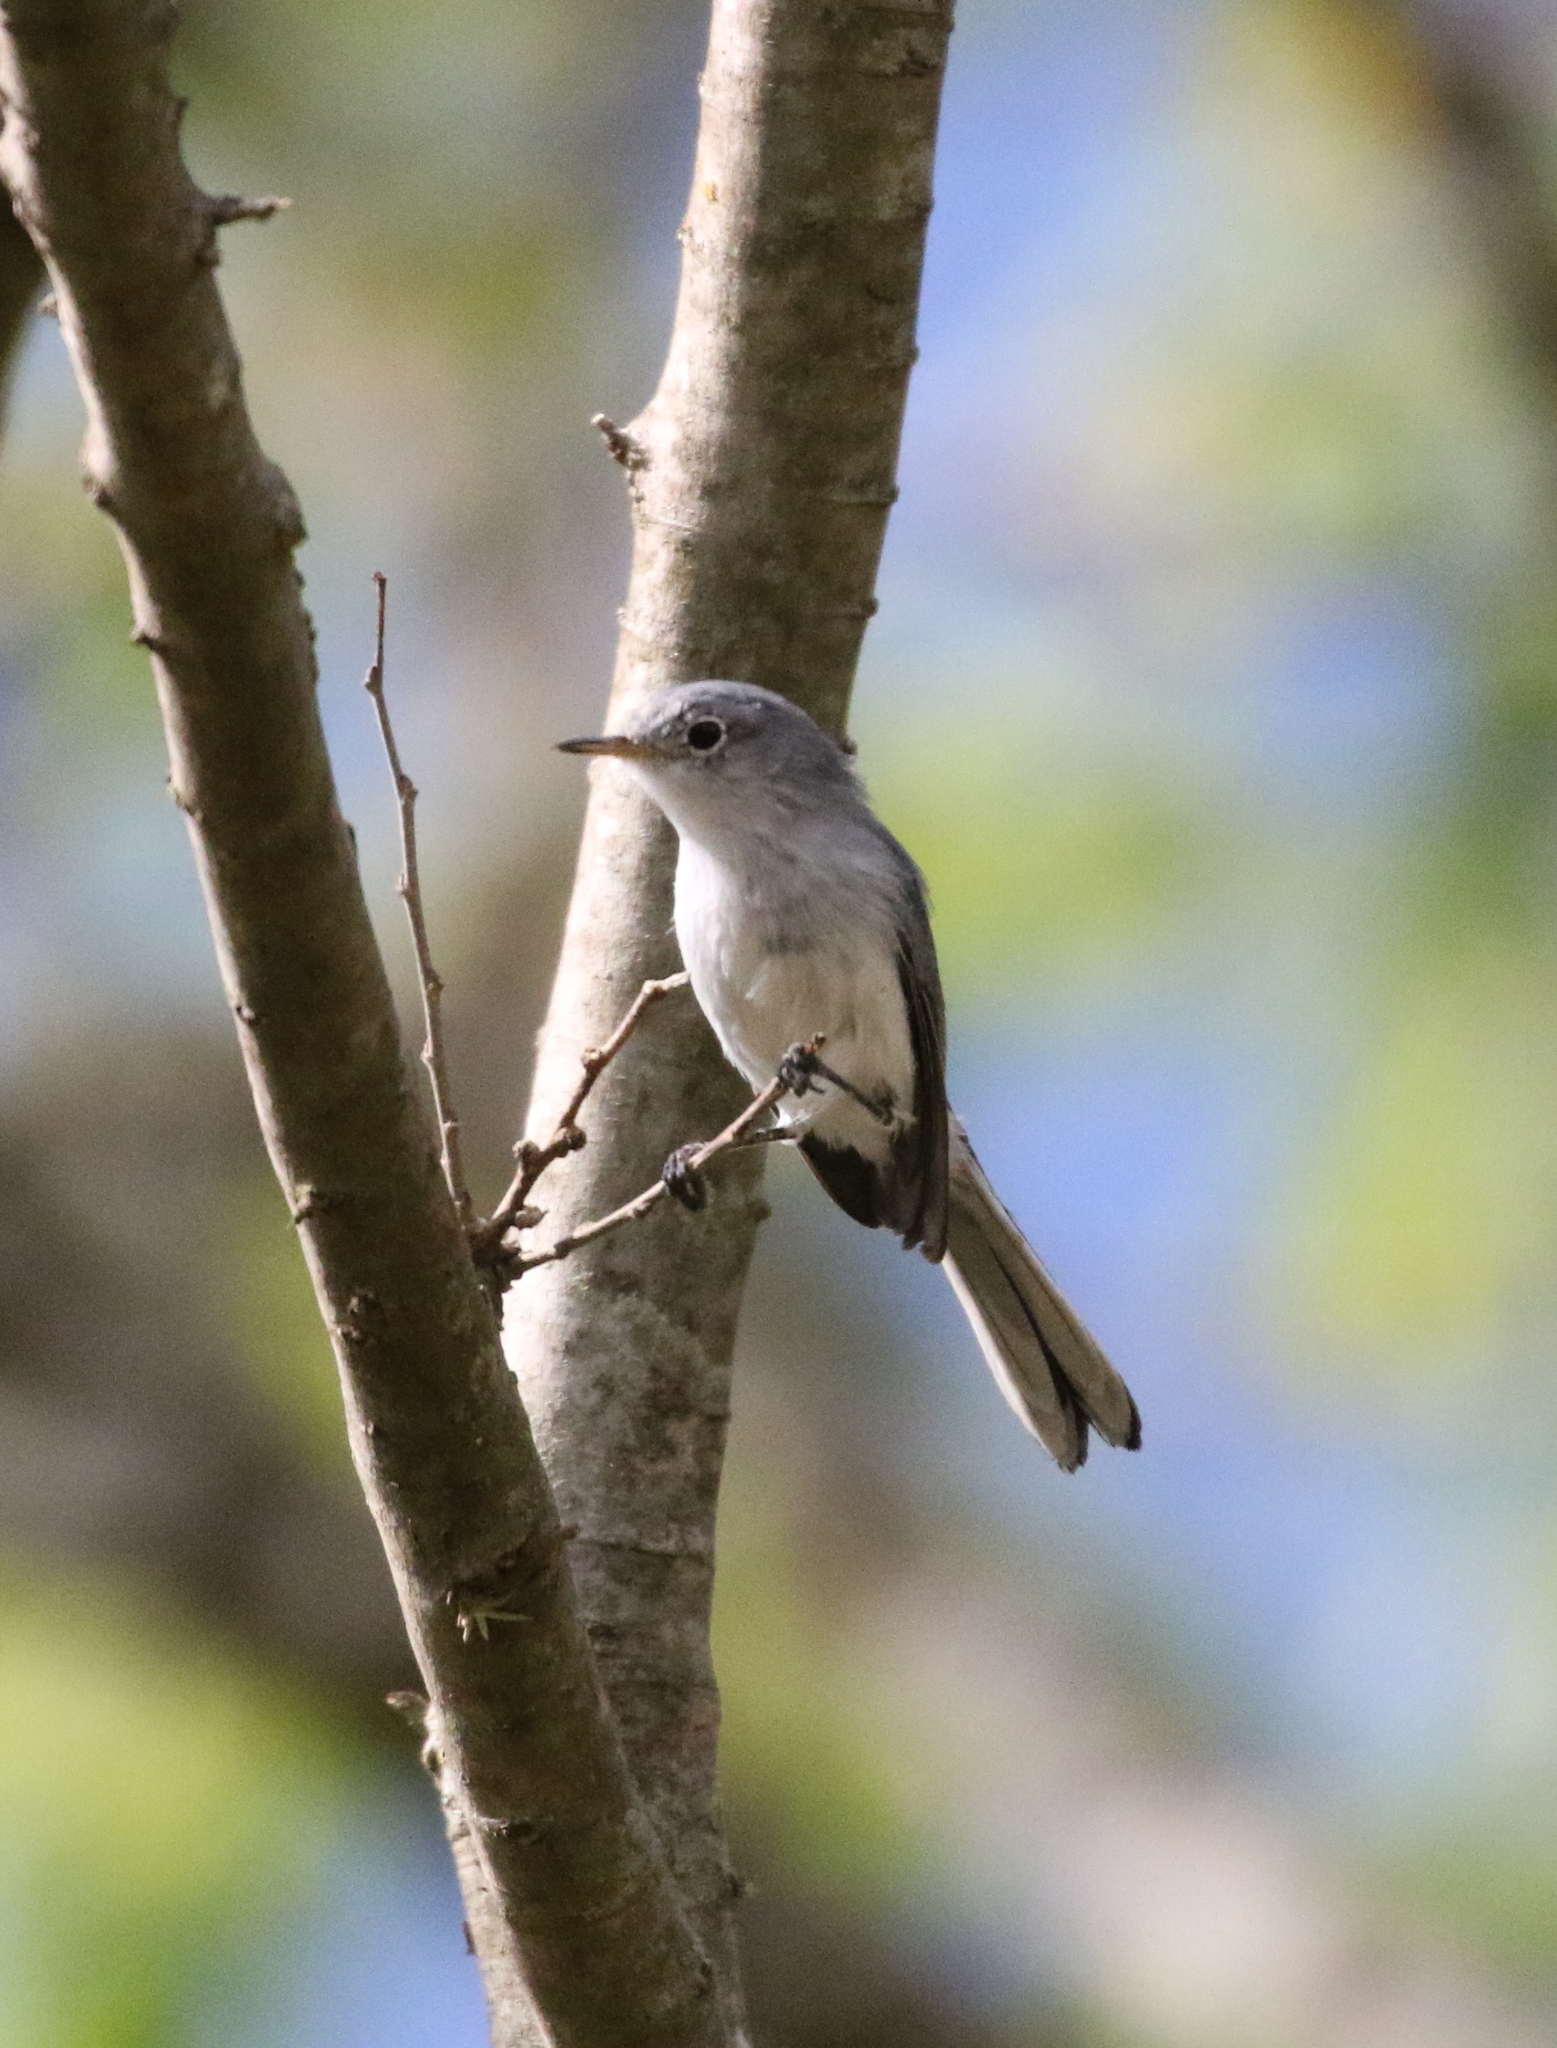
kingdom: Animalia
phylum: Chordata
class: Aves
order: Passeriformes
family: Polioptilidae
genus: Polioptila
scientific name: Polioptila caerulea
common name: Blue-gray gnatcatcher
